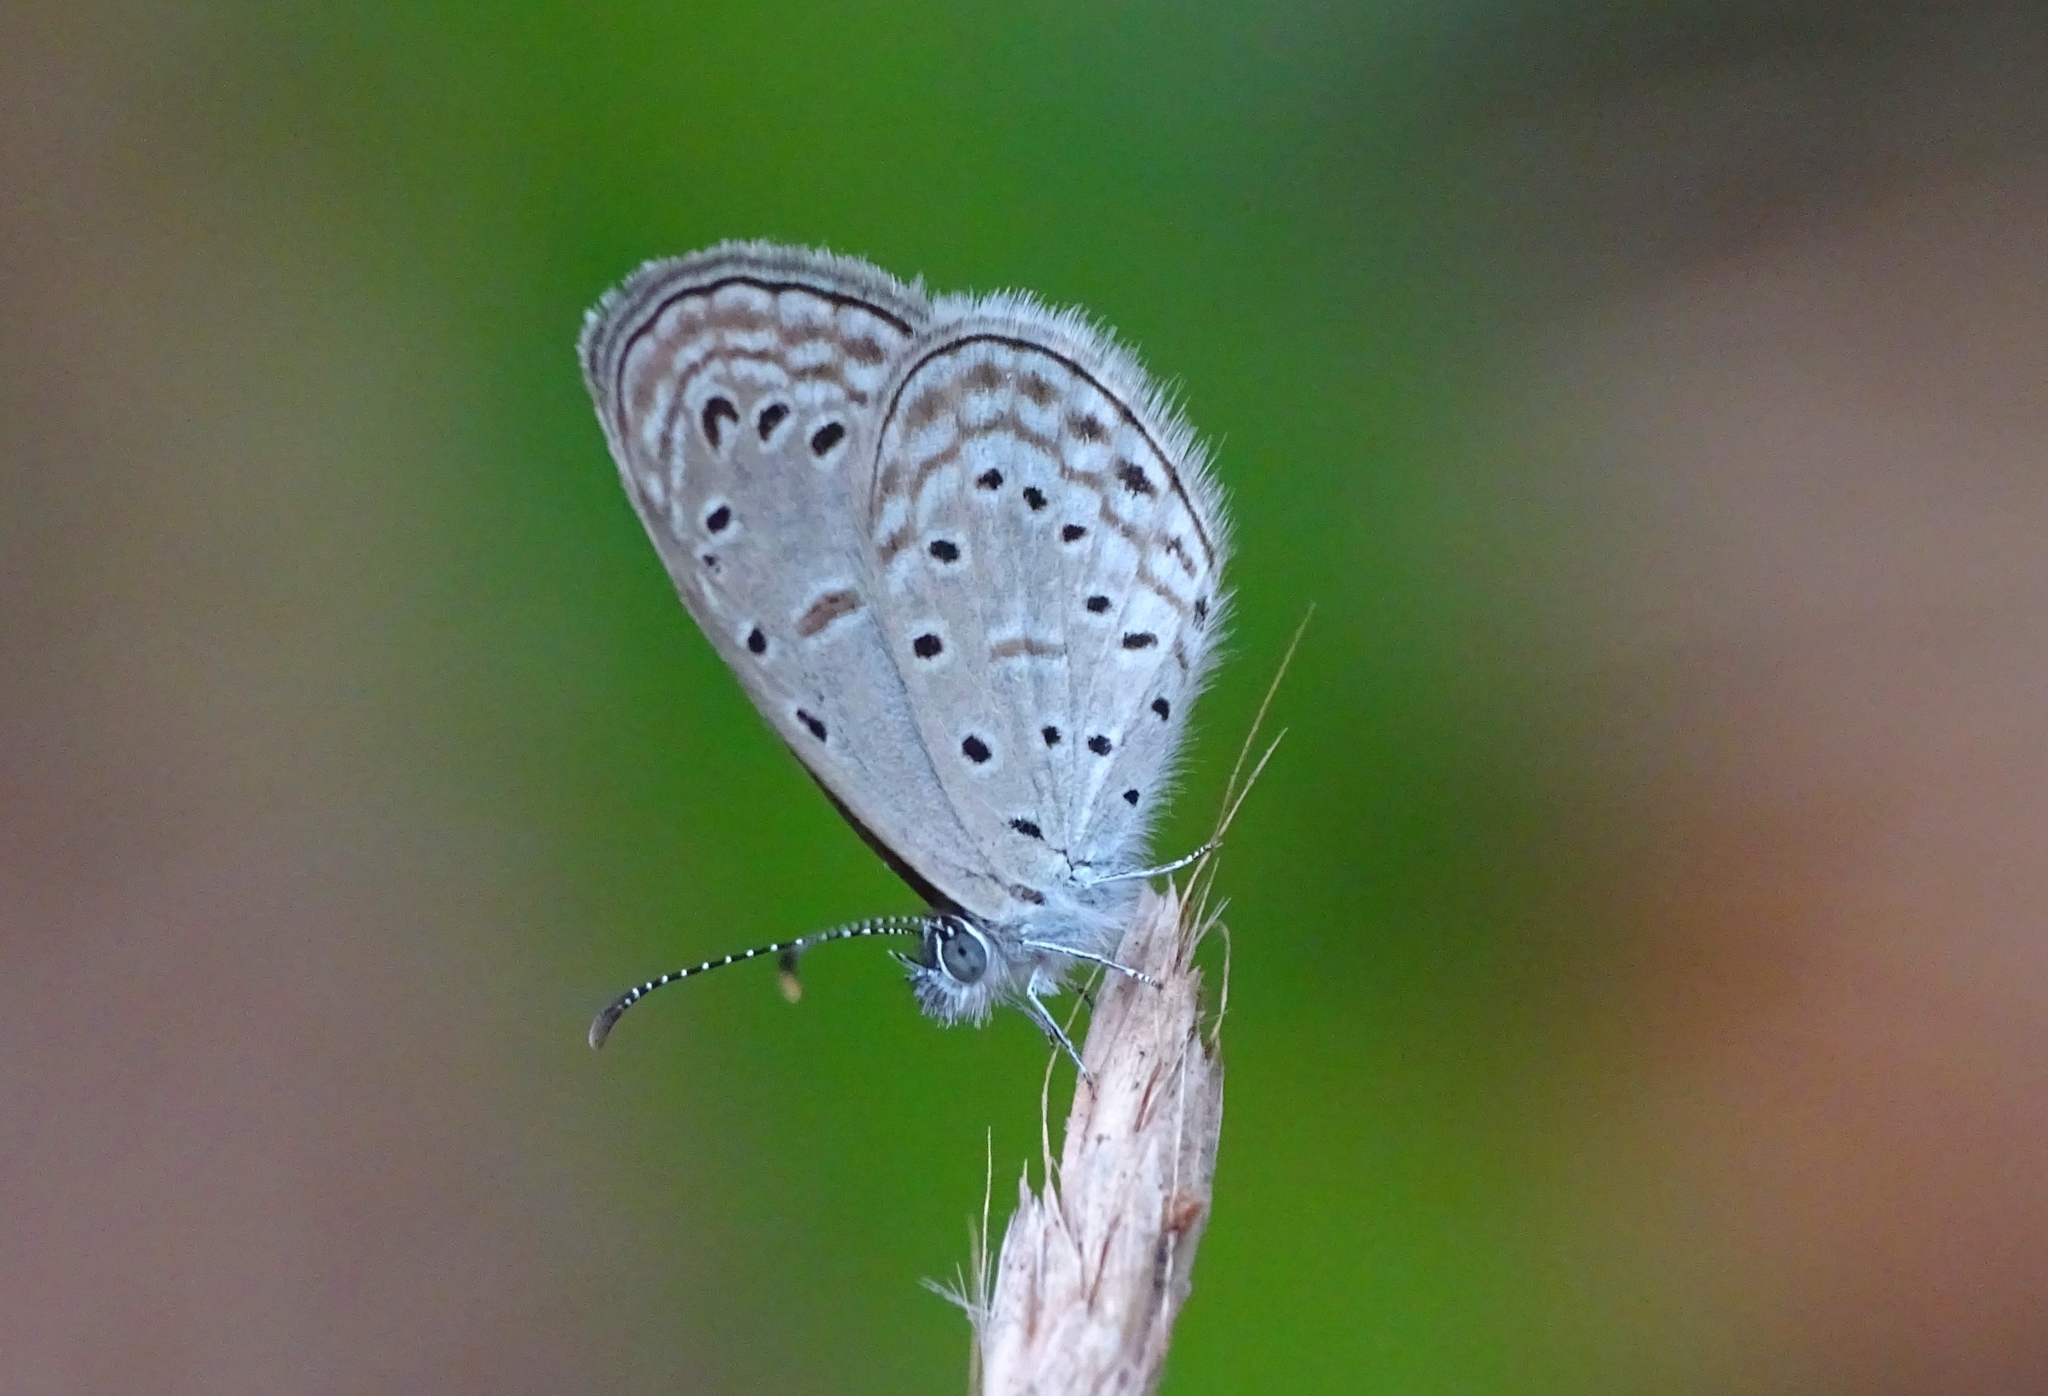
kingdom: Animalia
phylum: Arthropoda
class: Insecta
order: Lepidoptera
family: Lycaenidae
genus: Zizula
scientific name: Zizula hylax
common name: Gaika blue
